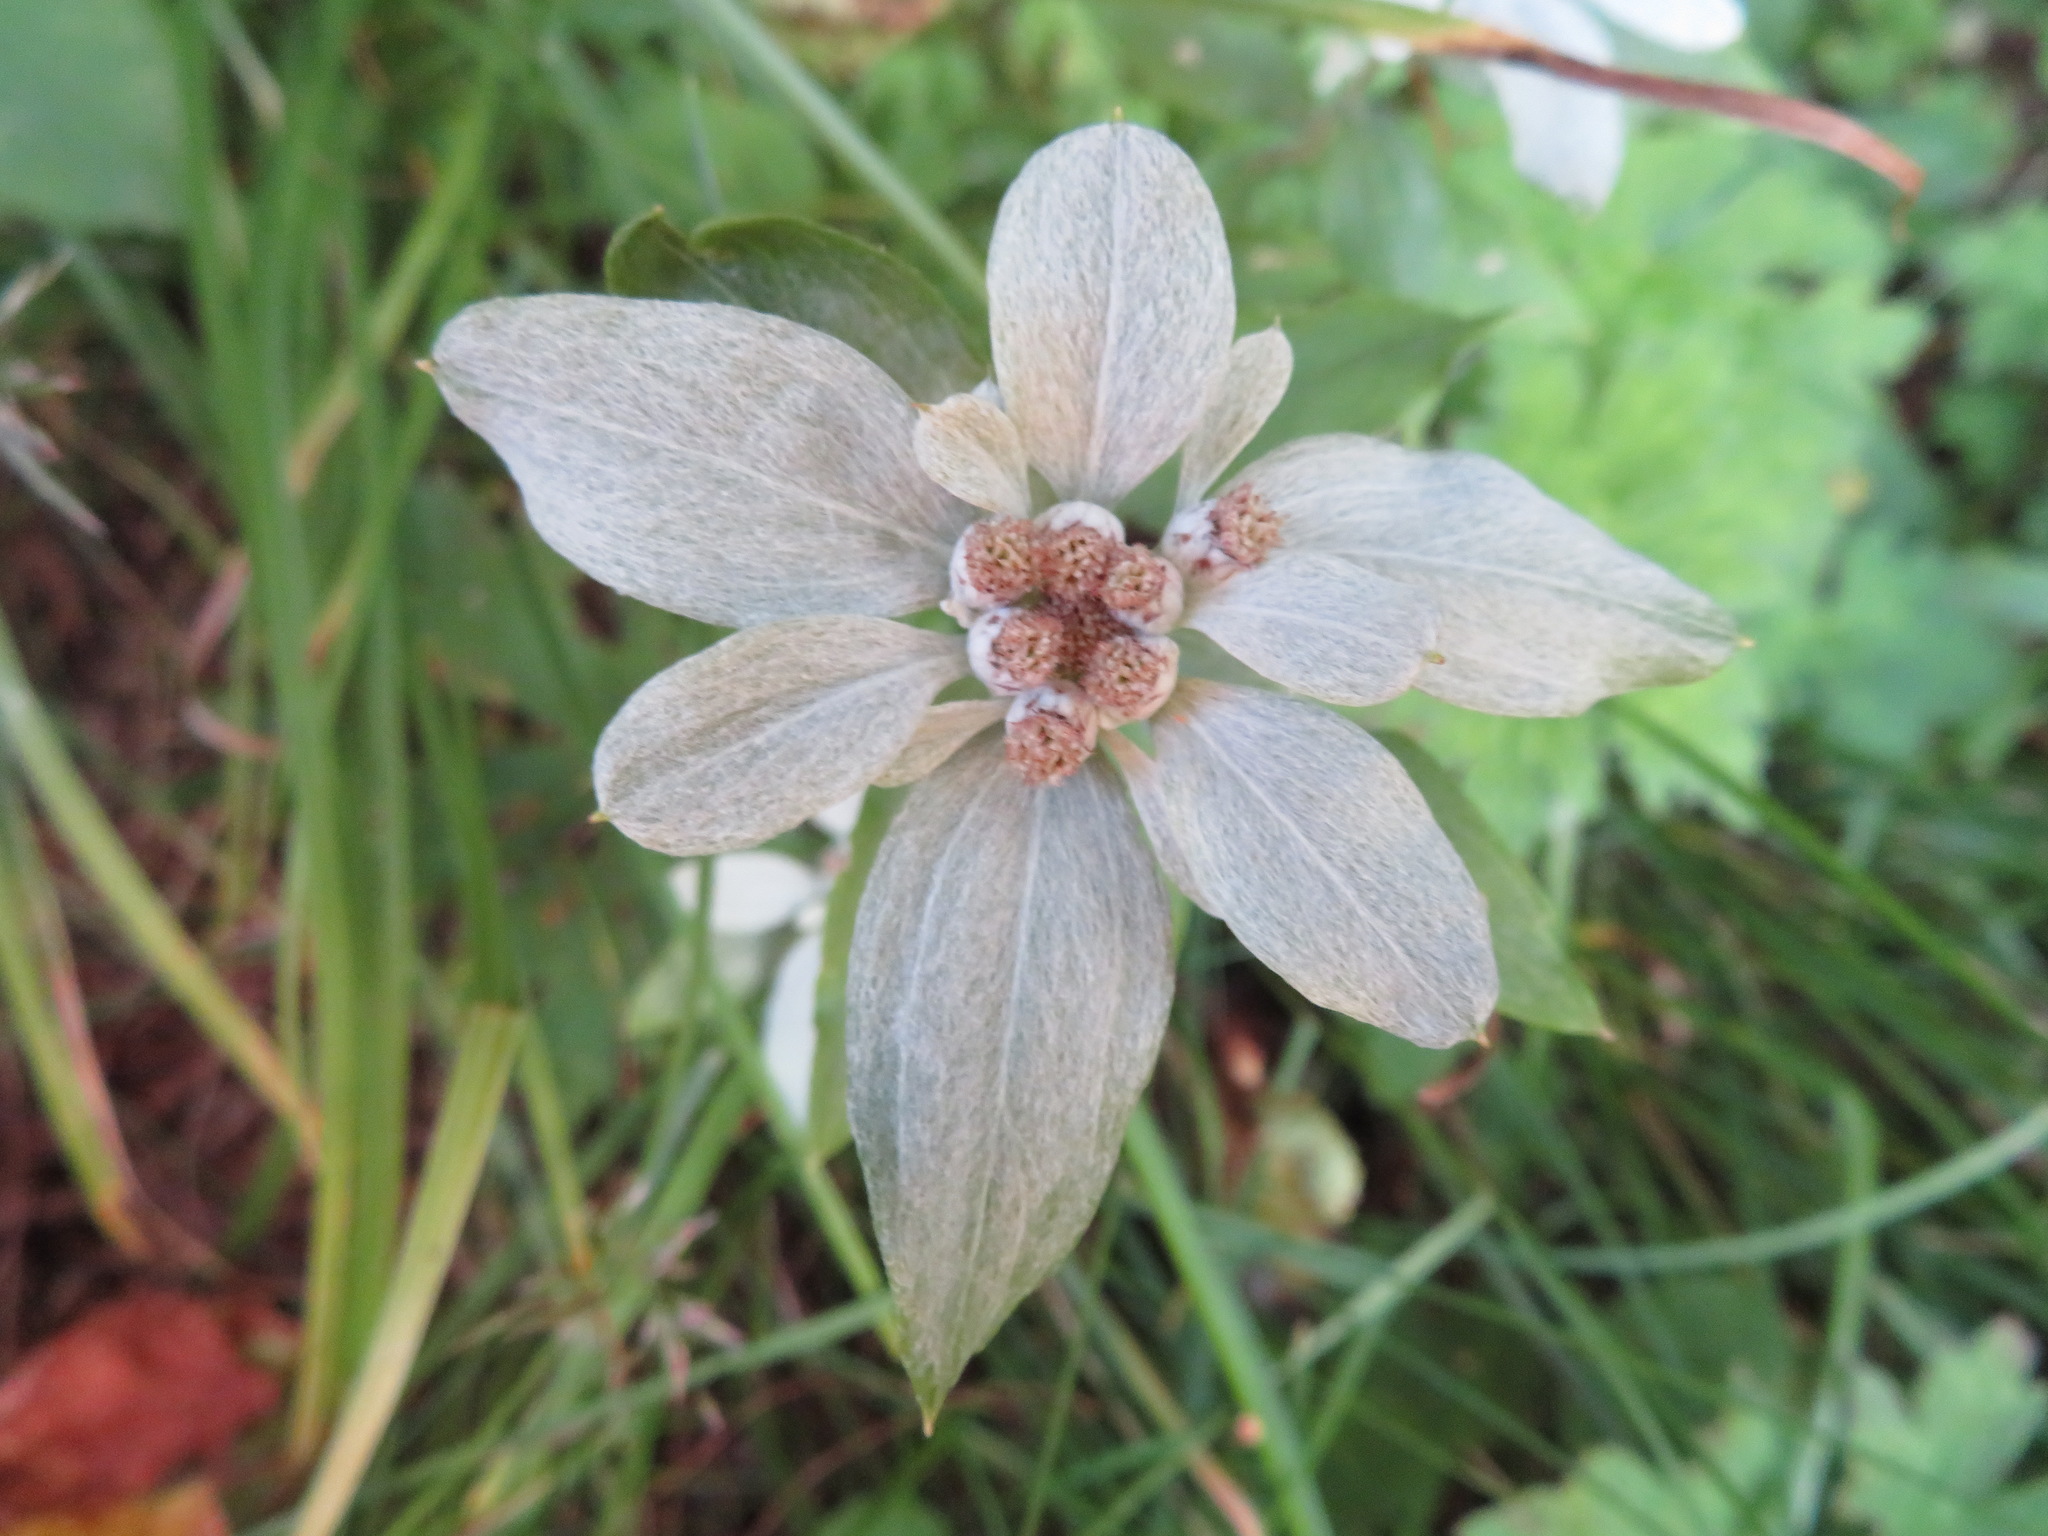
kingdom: Plantae
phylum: Tracheophyta
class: Magnoliopsida
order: Asterales
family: Asteraceae
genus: Leontopodium
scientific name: Leontopodium japonicum
